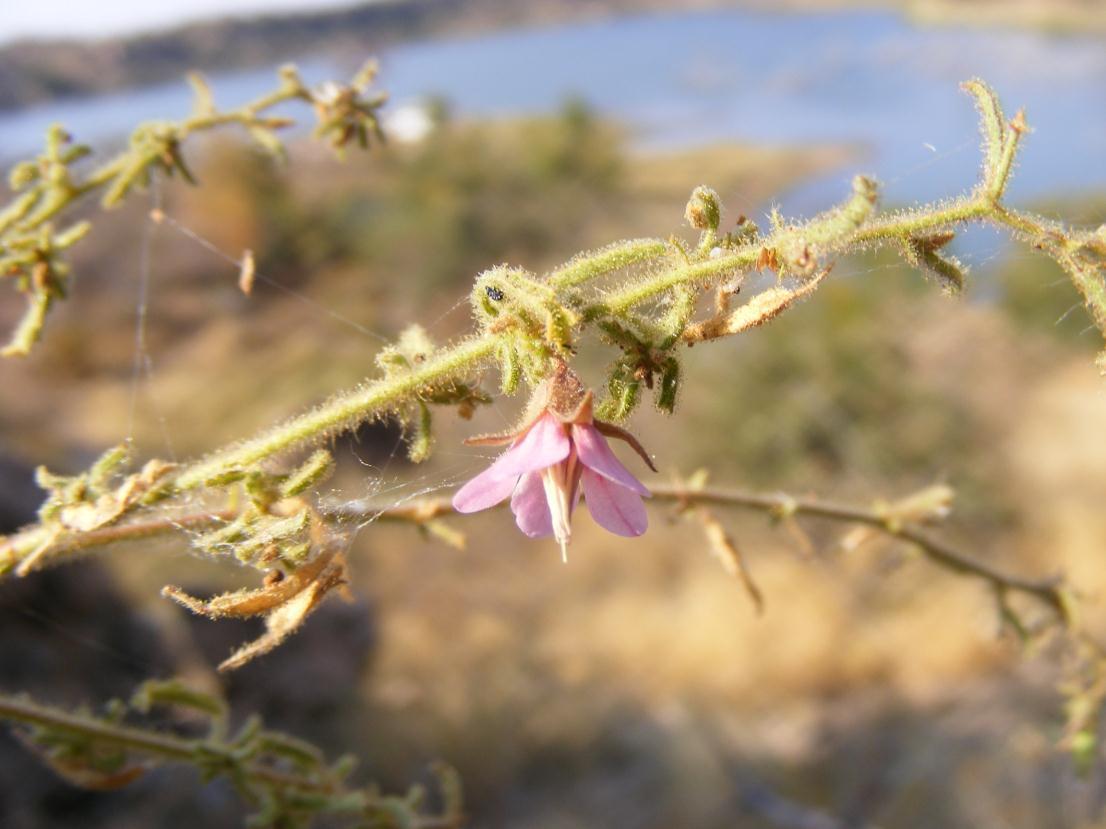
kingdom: Plantae
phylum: Tracheophyta
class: Magnoliopsida
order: Malvales
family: Malvaceae
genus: Hermannia
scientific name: Hermannia boraginiflora
